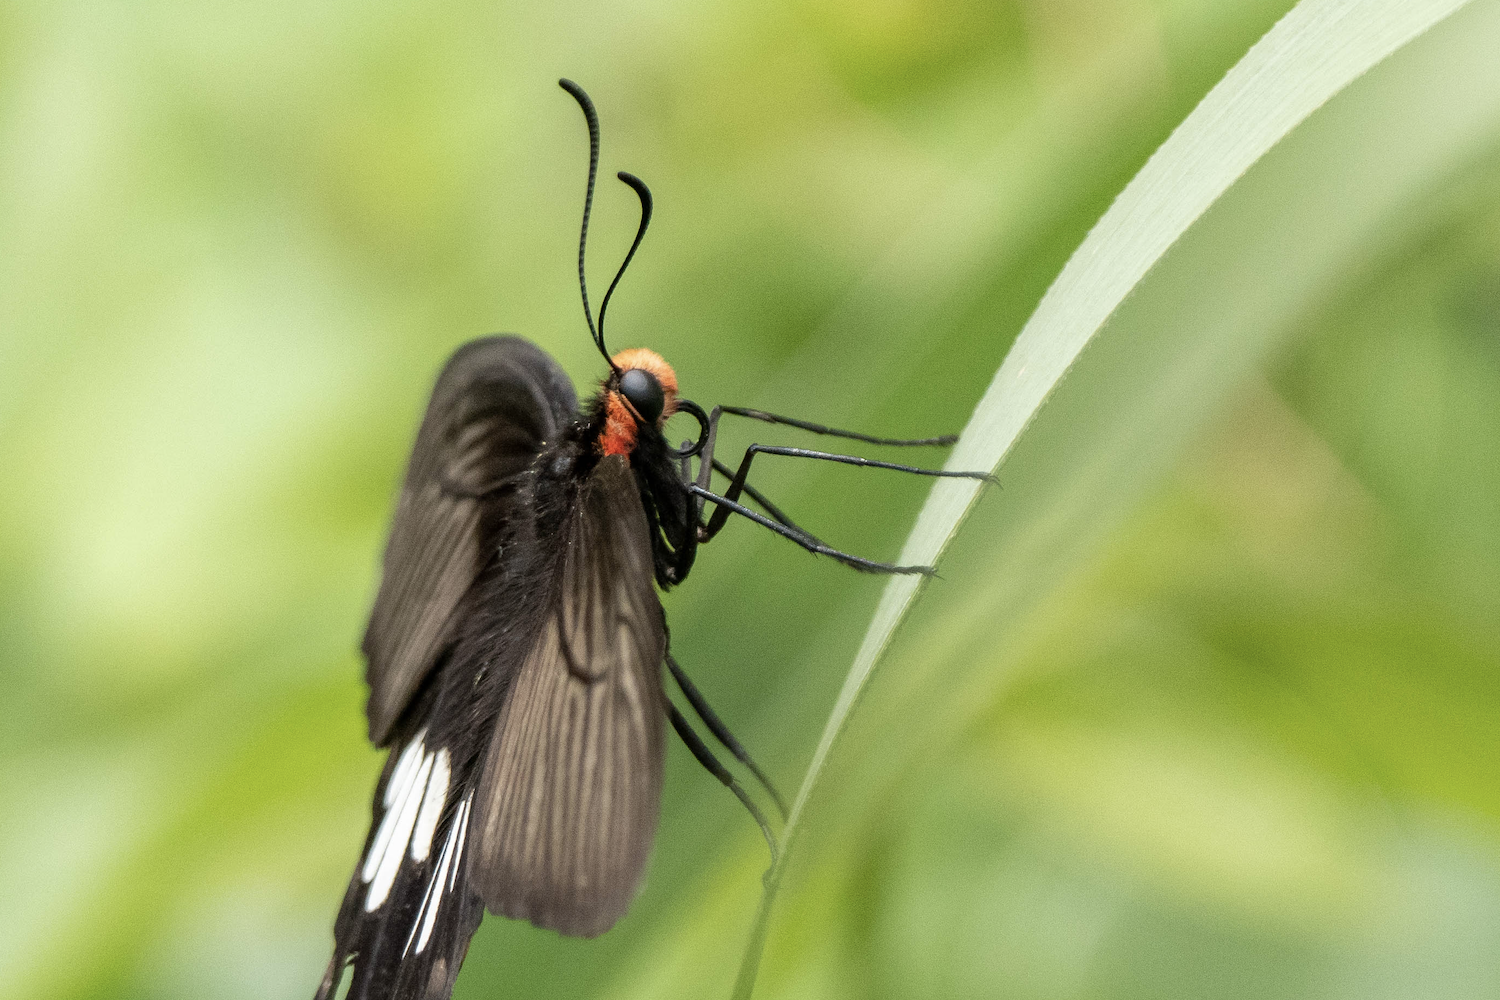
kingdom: Animalia
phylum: Arthropoda
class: Insecta
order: Lepidoptera
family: Papilionidae
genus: Pachliopta
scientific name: Pachliopta aristolochiae
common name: Common rose
